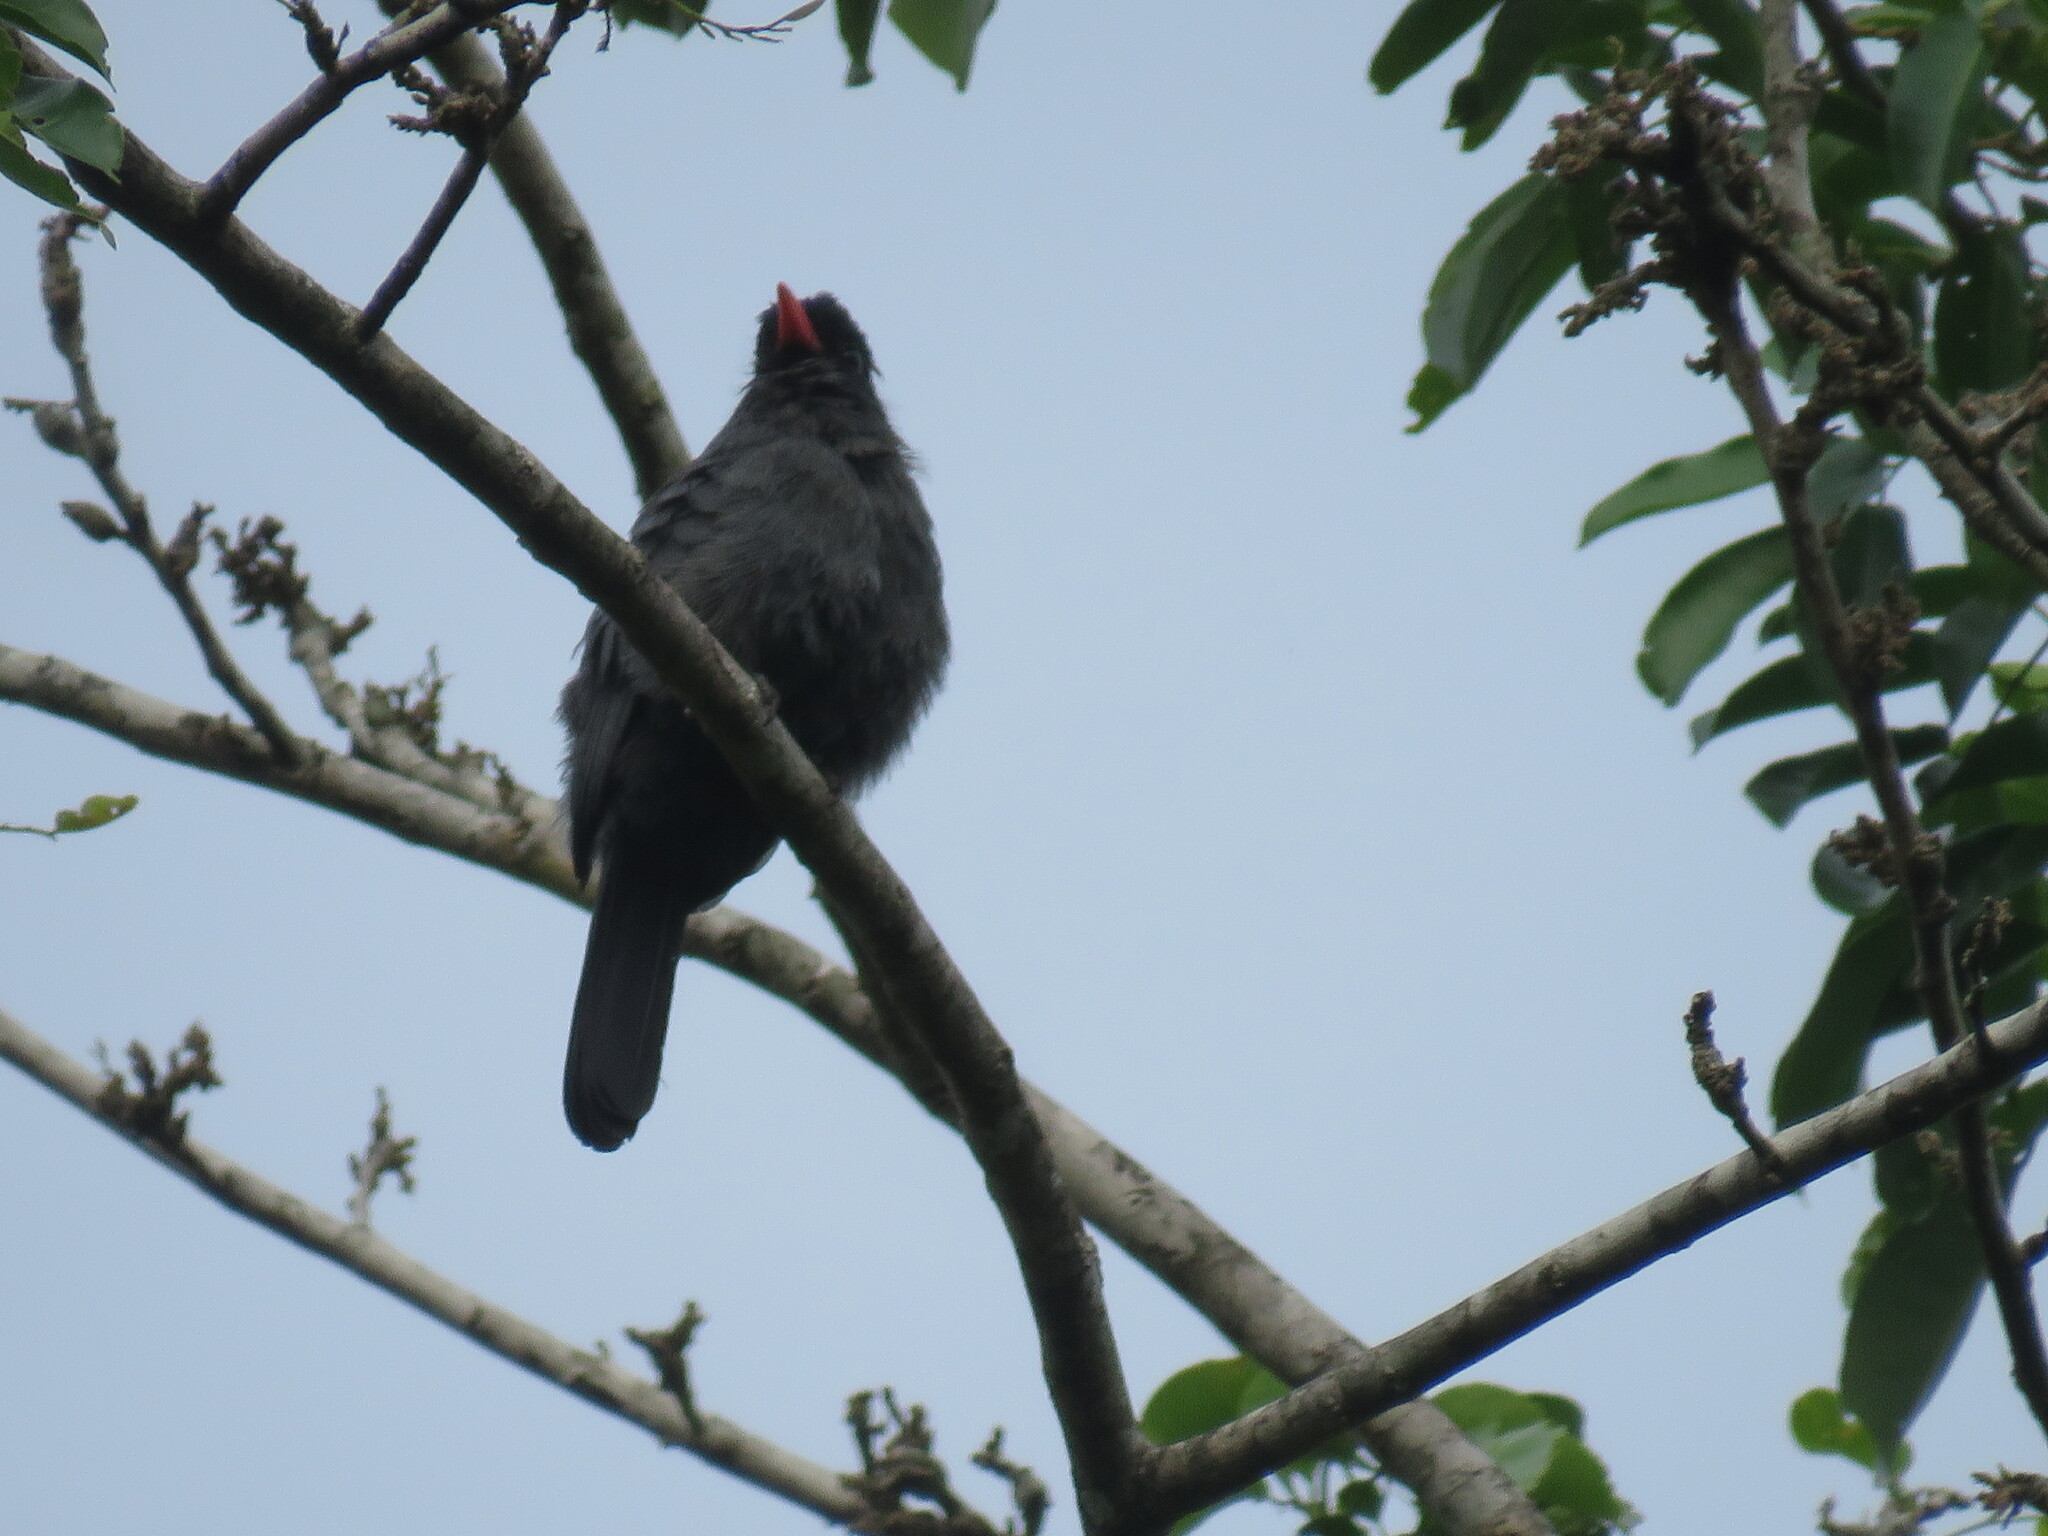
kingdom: Animalia
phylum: Chordata
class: Aves
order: Piciformes
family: Bucconidae
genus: Monasa
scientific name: Monasa nigrifrons
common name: Black-fronted nunbird
